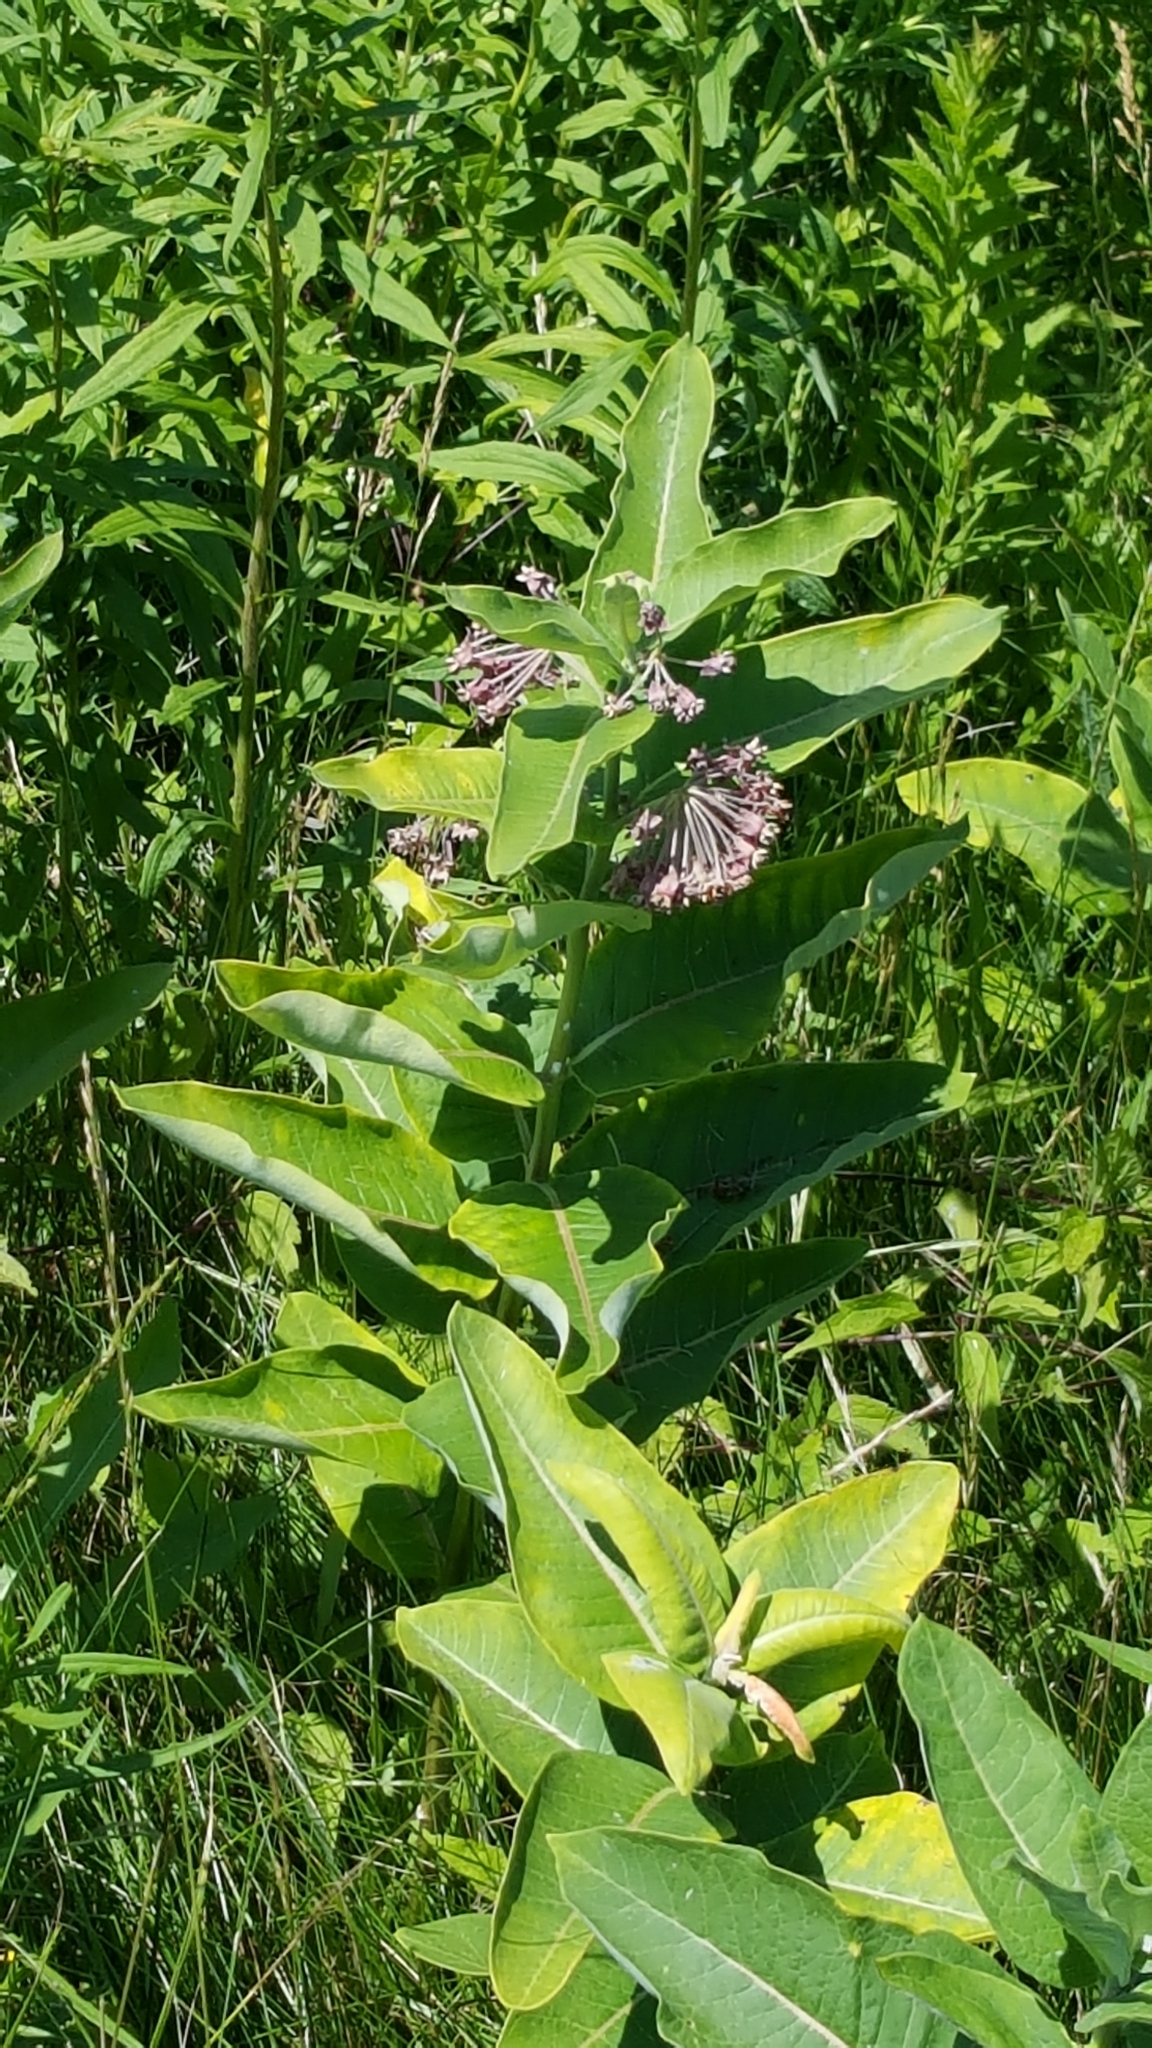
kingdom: Plantae
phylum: Tracheophyta
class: Magnoliopsida
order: Gentianales
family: Apocynaceae
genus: Asclepias
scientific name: Asclepias syriaca
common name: Common milkweed
